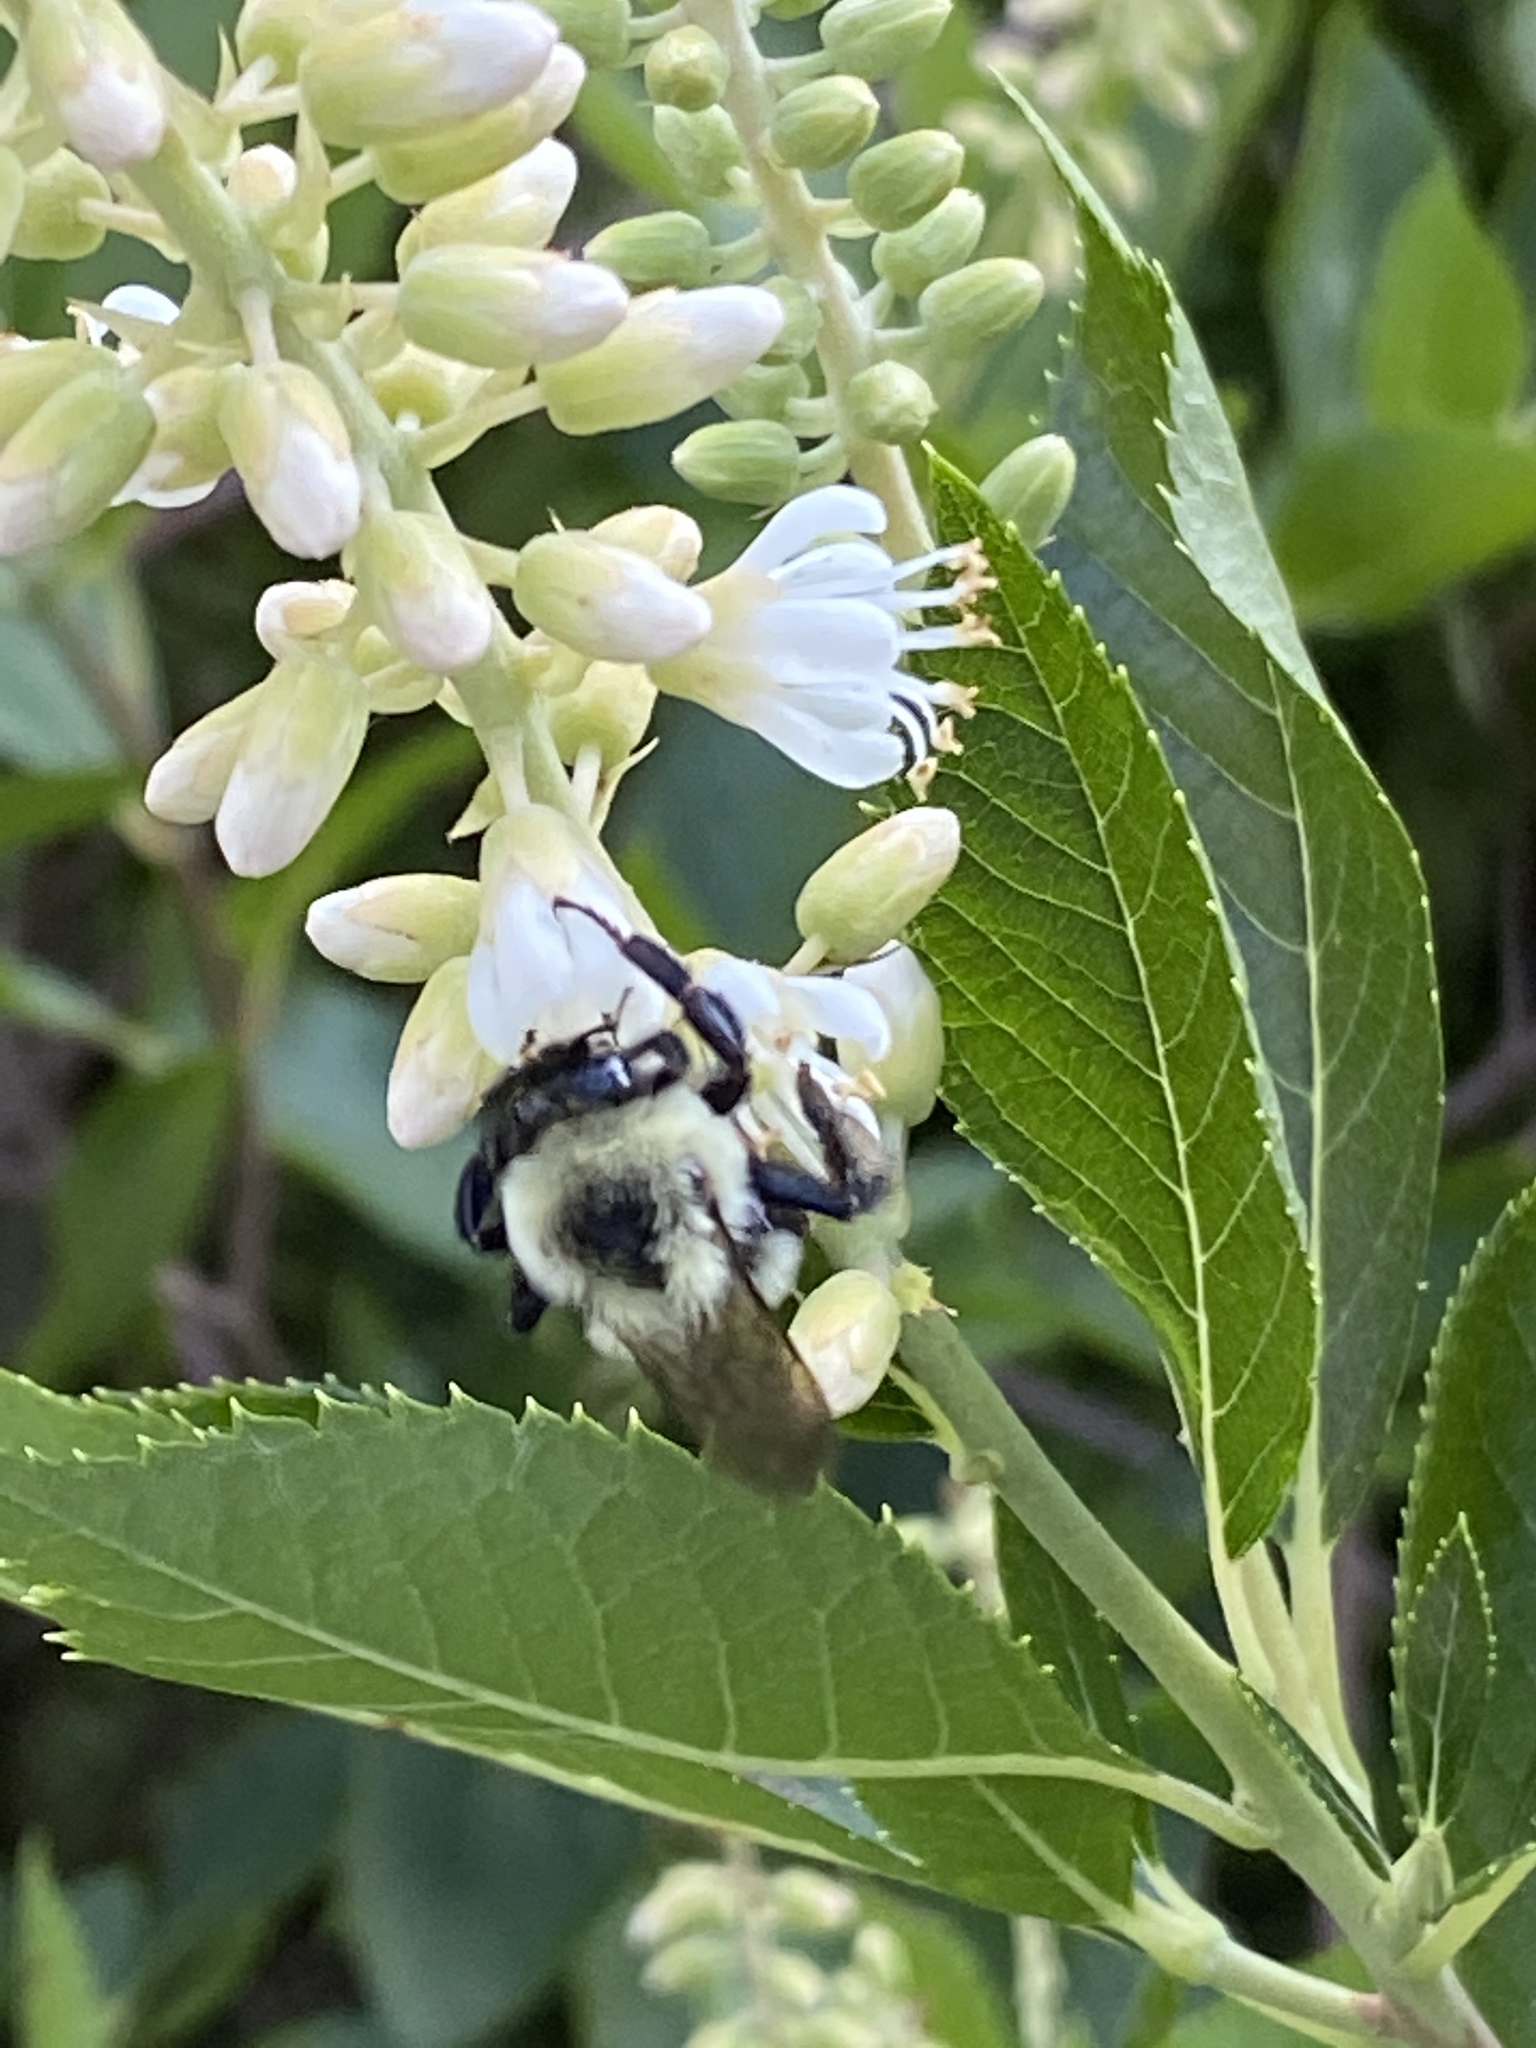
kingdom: Animalia
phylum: Arthropoda
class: Insecta
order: Hymenoptera
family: Apidae
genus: Bombus
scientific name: Bombus impatiens
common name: Common eastern bumble bee
